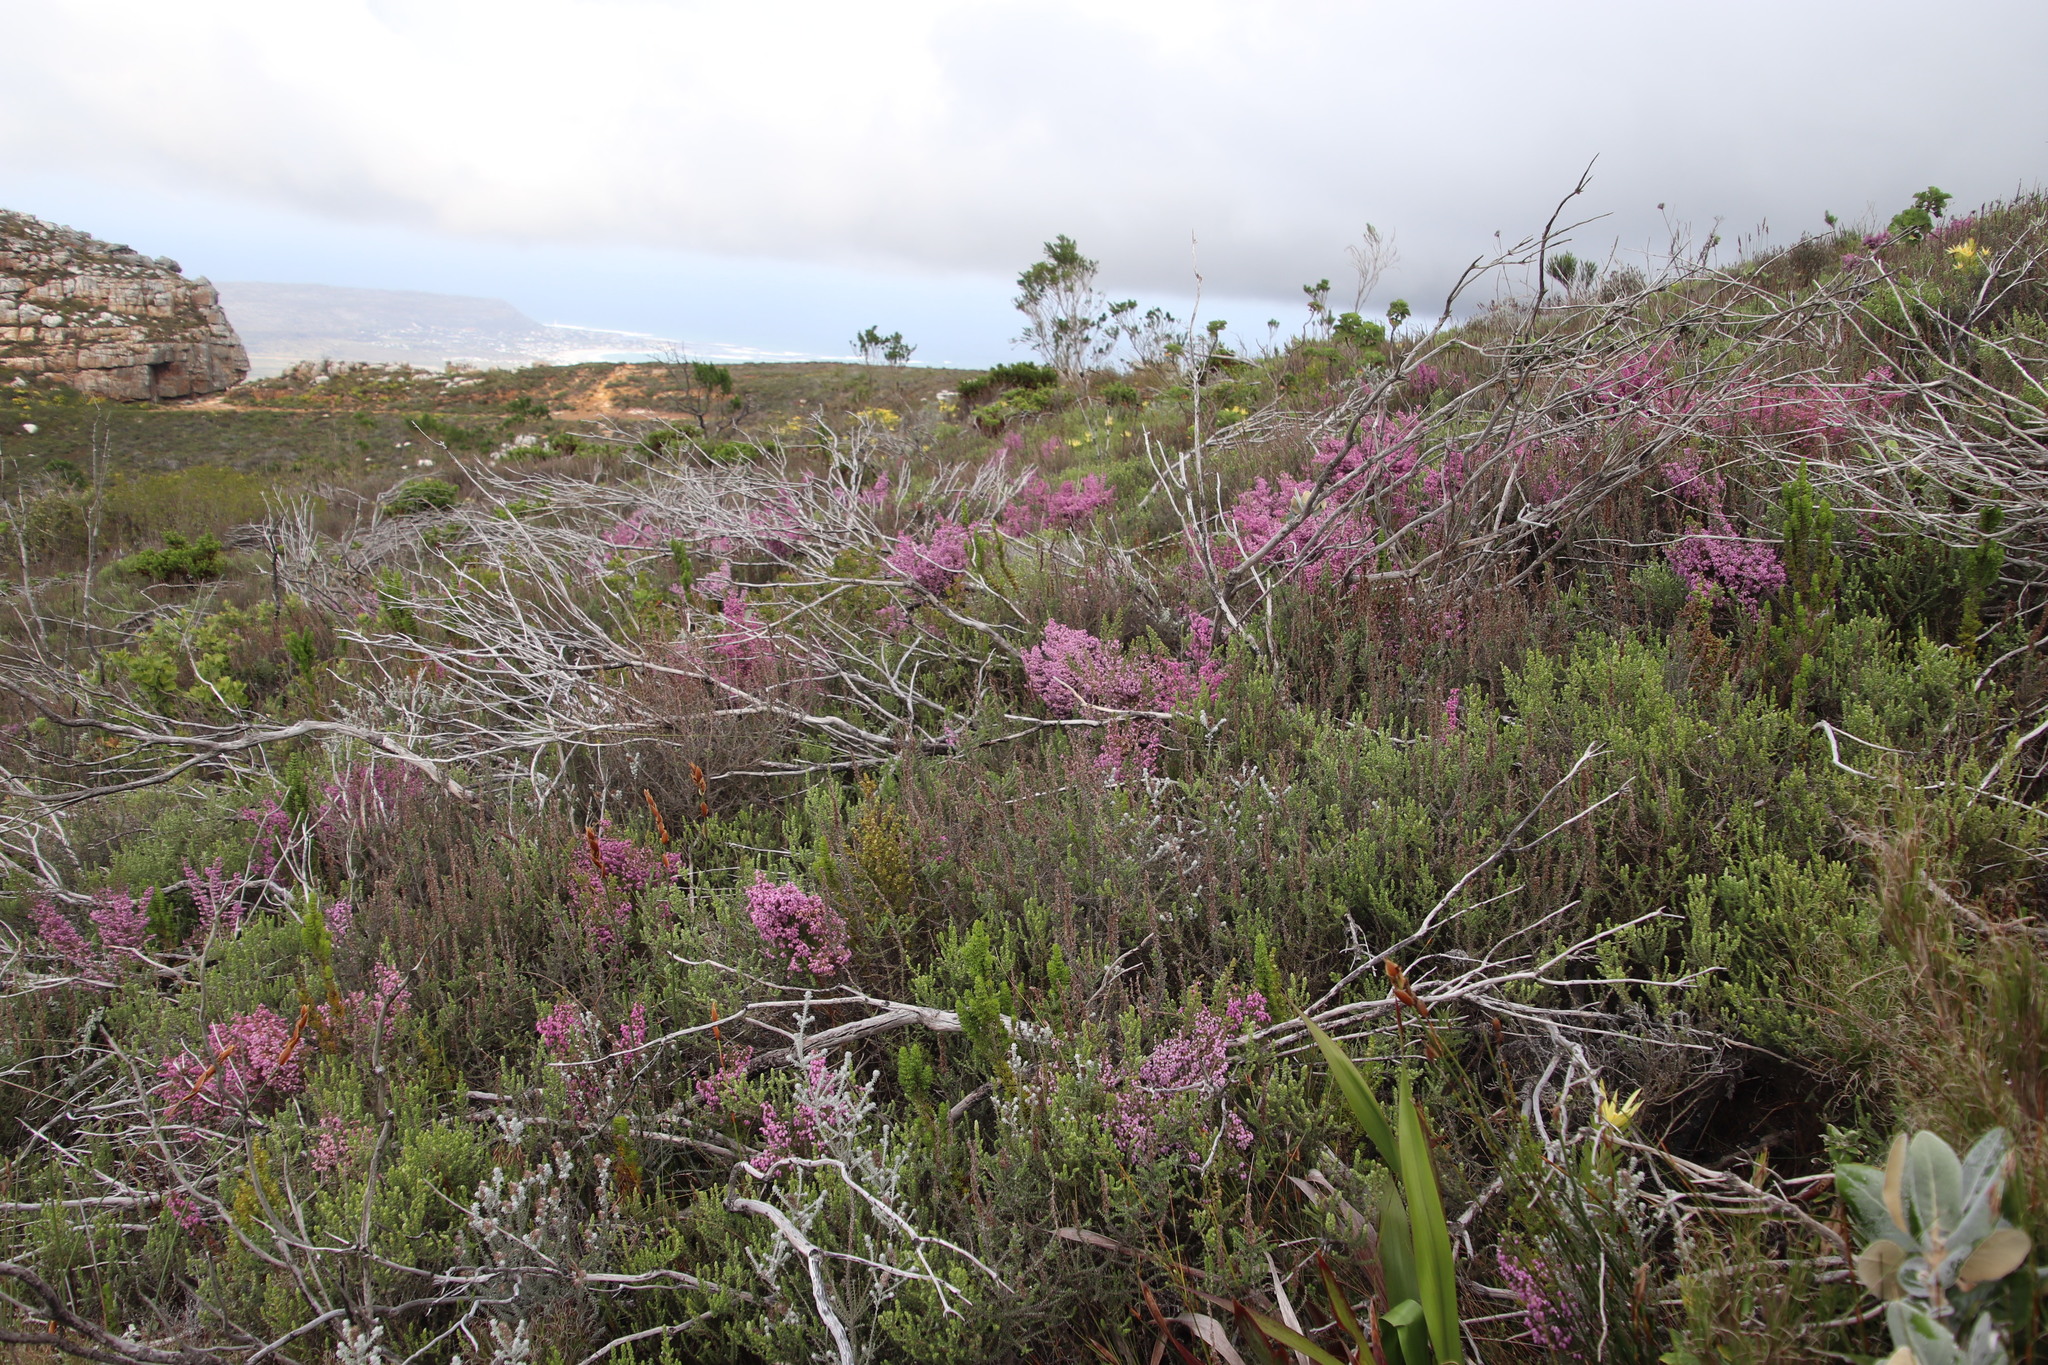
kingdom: Plantae
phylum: Tracheophyta
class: Magnoliopsida
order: Ericales
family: Ericaceae
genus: Erica
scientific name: Erica hirtiflora
